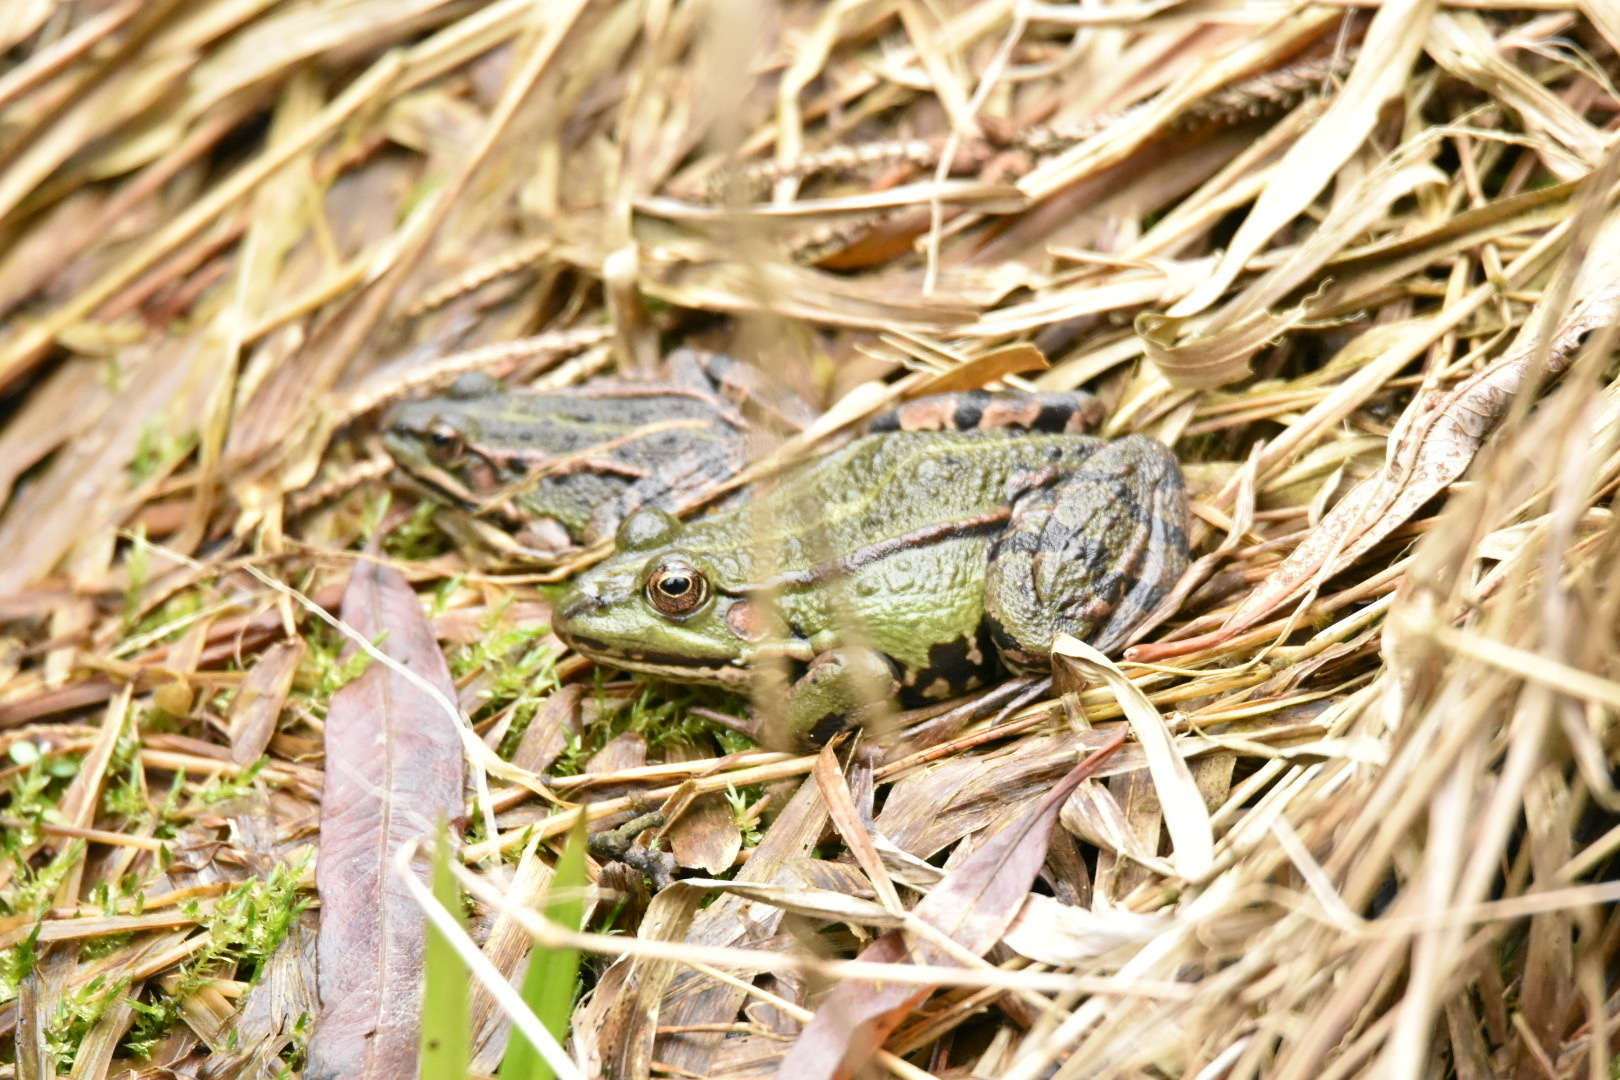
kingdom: Animalia
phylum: Chordata
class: Amphibia
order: Anura
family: Ranidae
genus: Pelophylax
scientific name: Pelophylax
